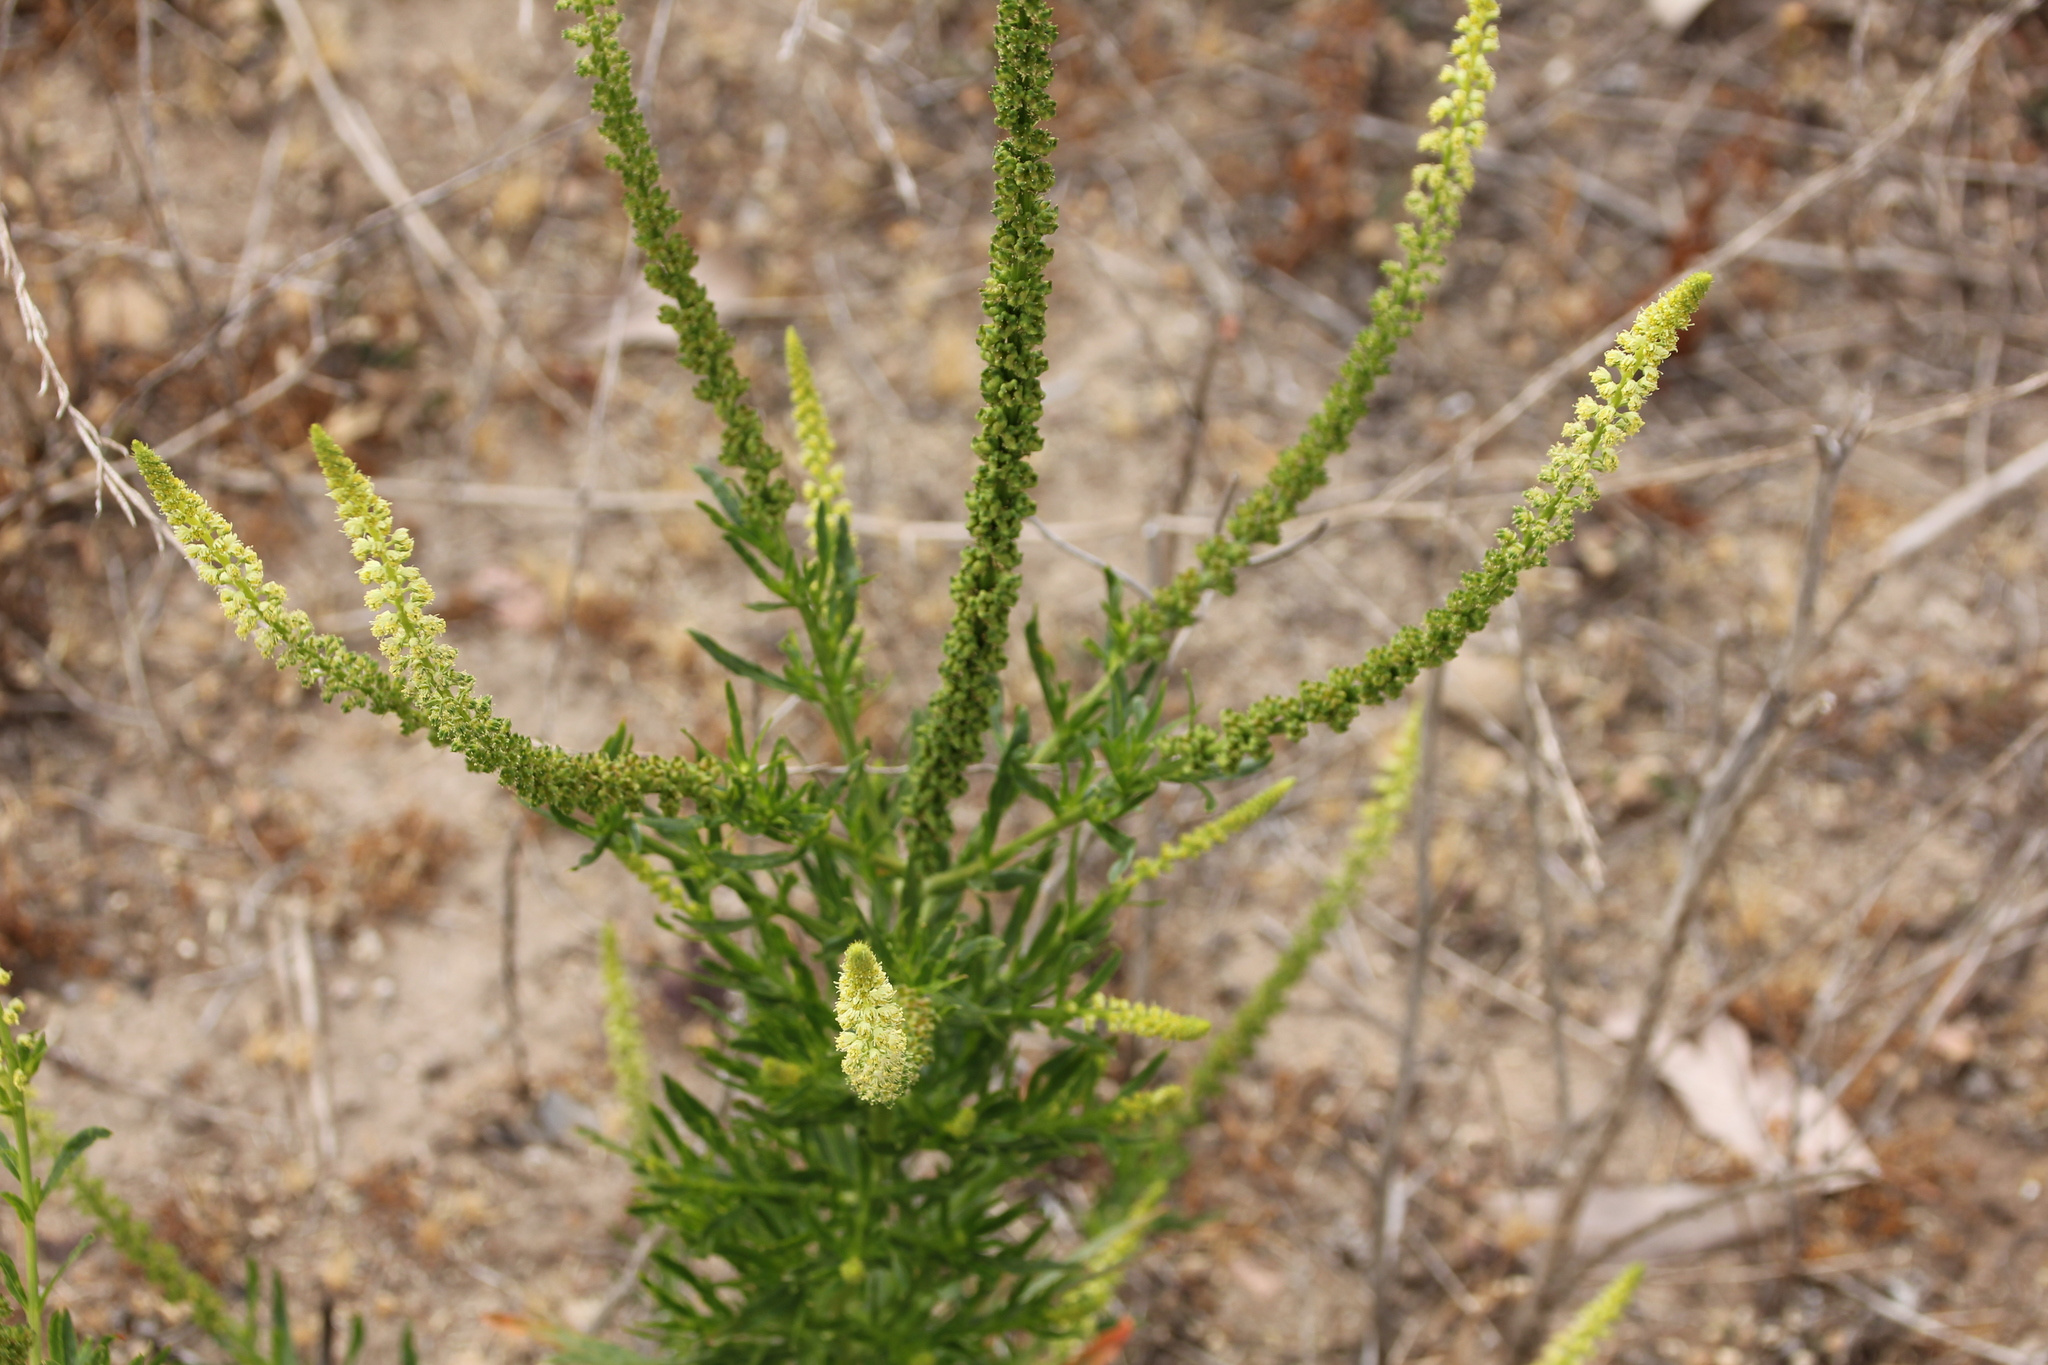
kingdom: Plantae
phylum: Tracheophyta
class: Magnoliopsida
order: Brassicales
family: Resedaceae
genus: Reseda
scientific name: Reseda luteola
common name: Weld
